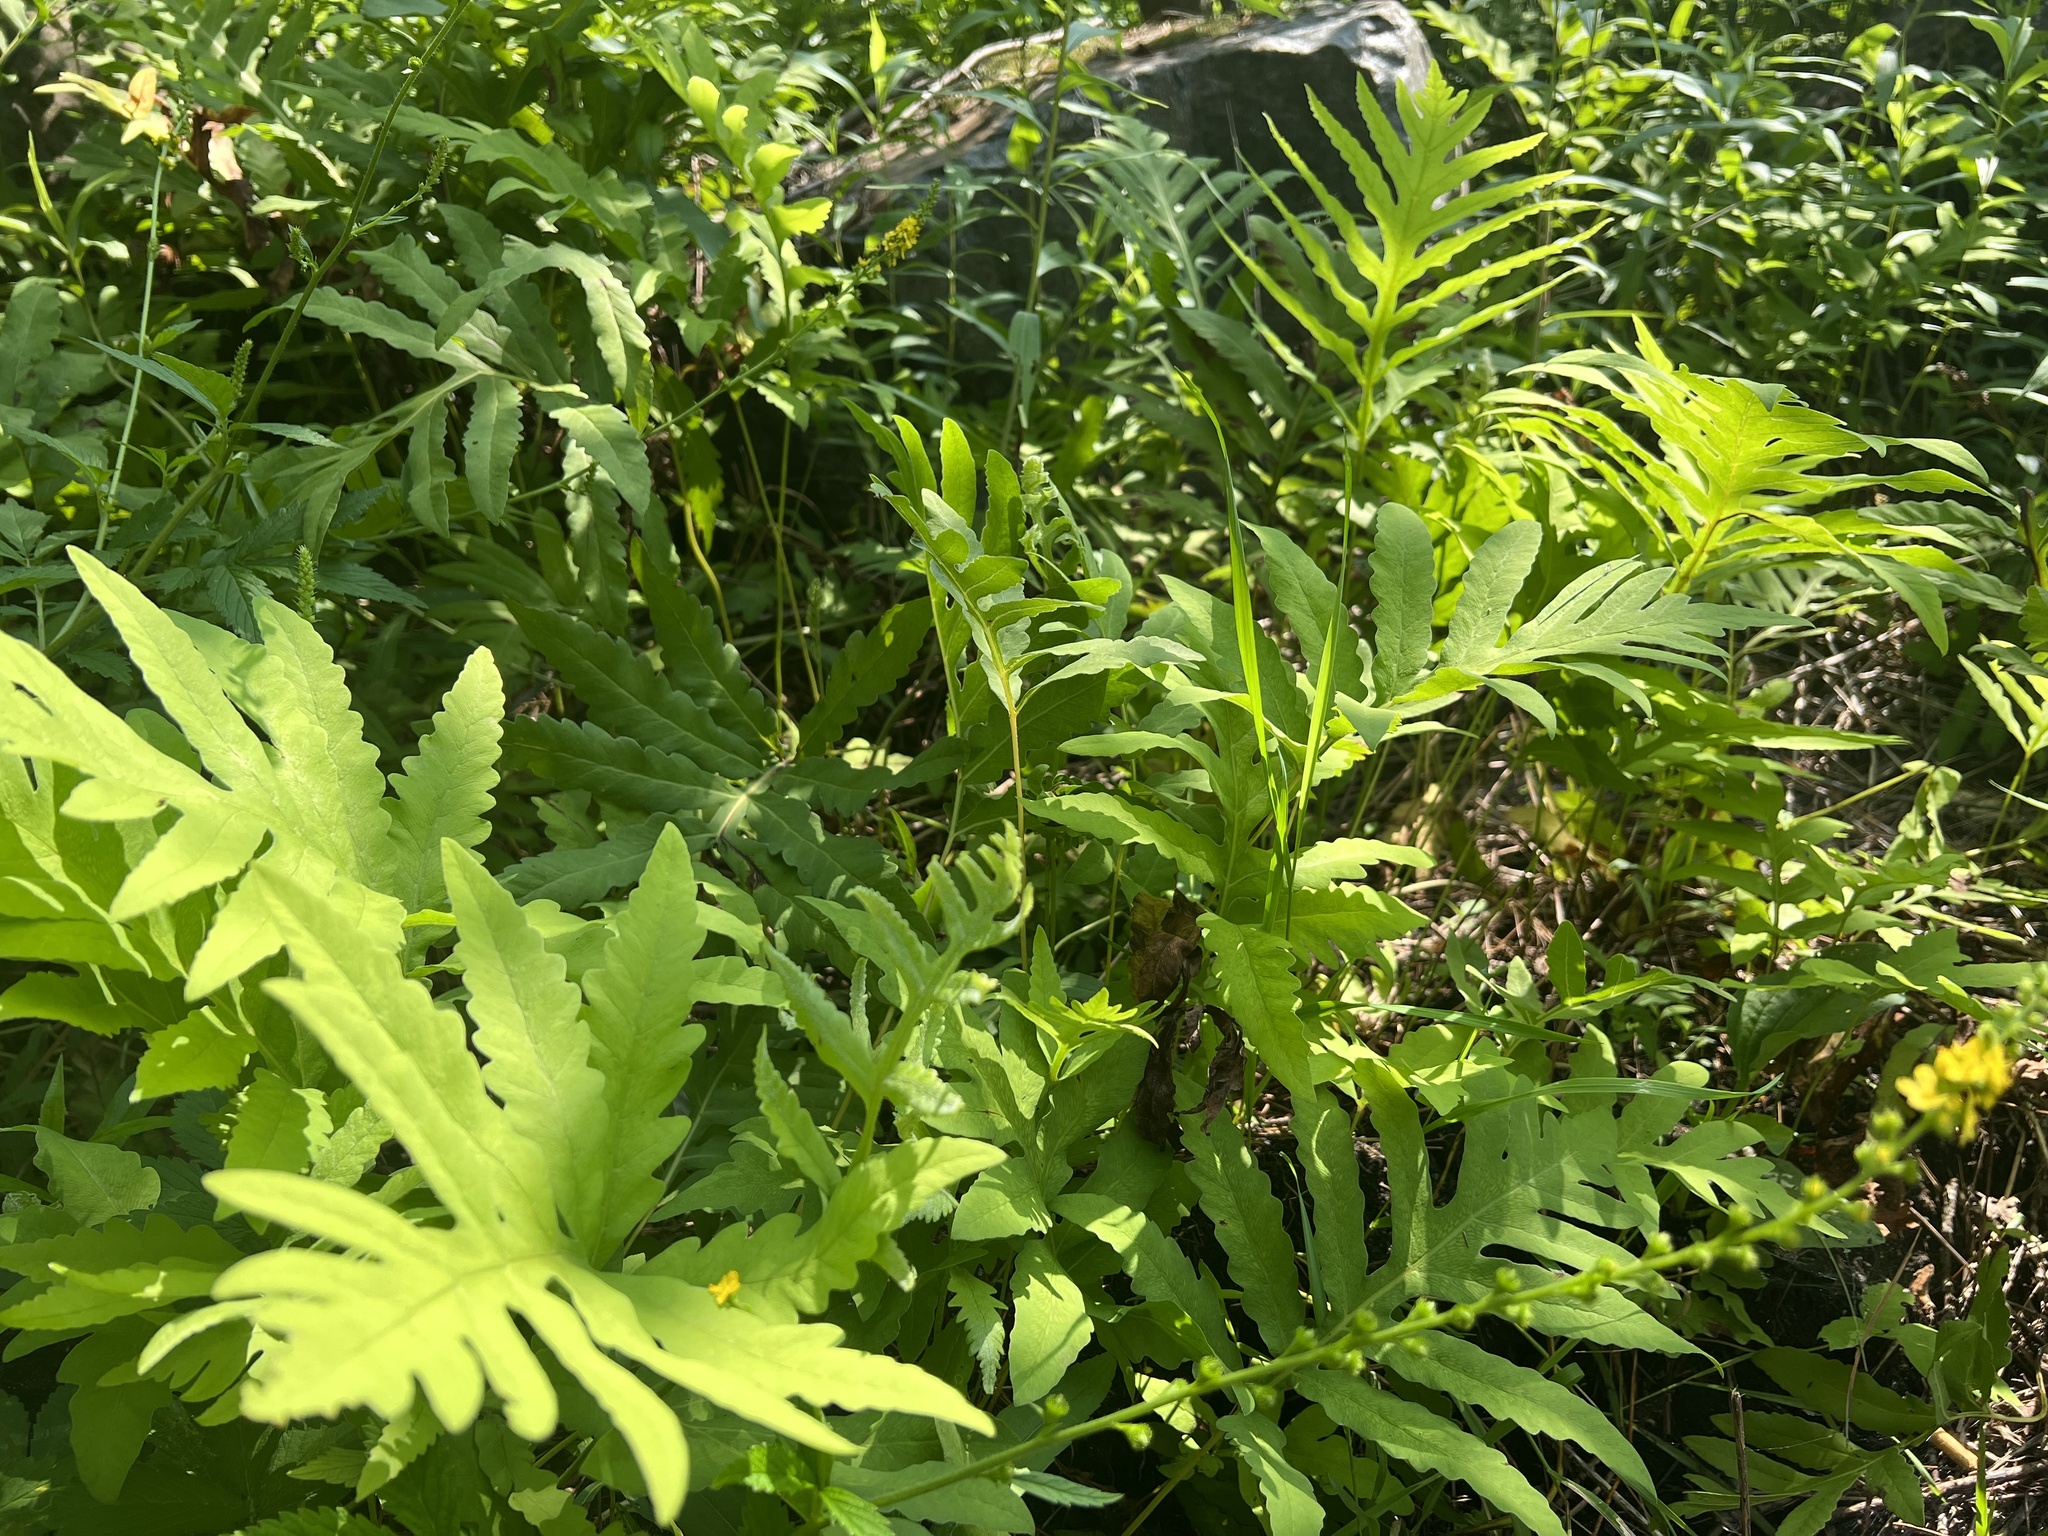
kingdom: Plantae
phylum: Tracheophyta
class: Polypodiopsida
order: Polypodiales
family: Onocleaceae
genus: Onoclea
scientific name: Onoclea sensibilis
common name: Sensitive fern
